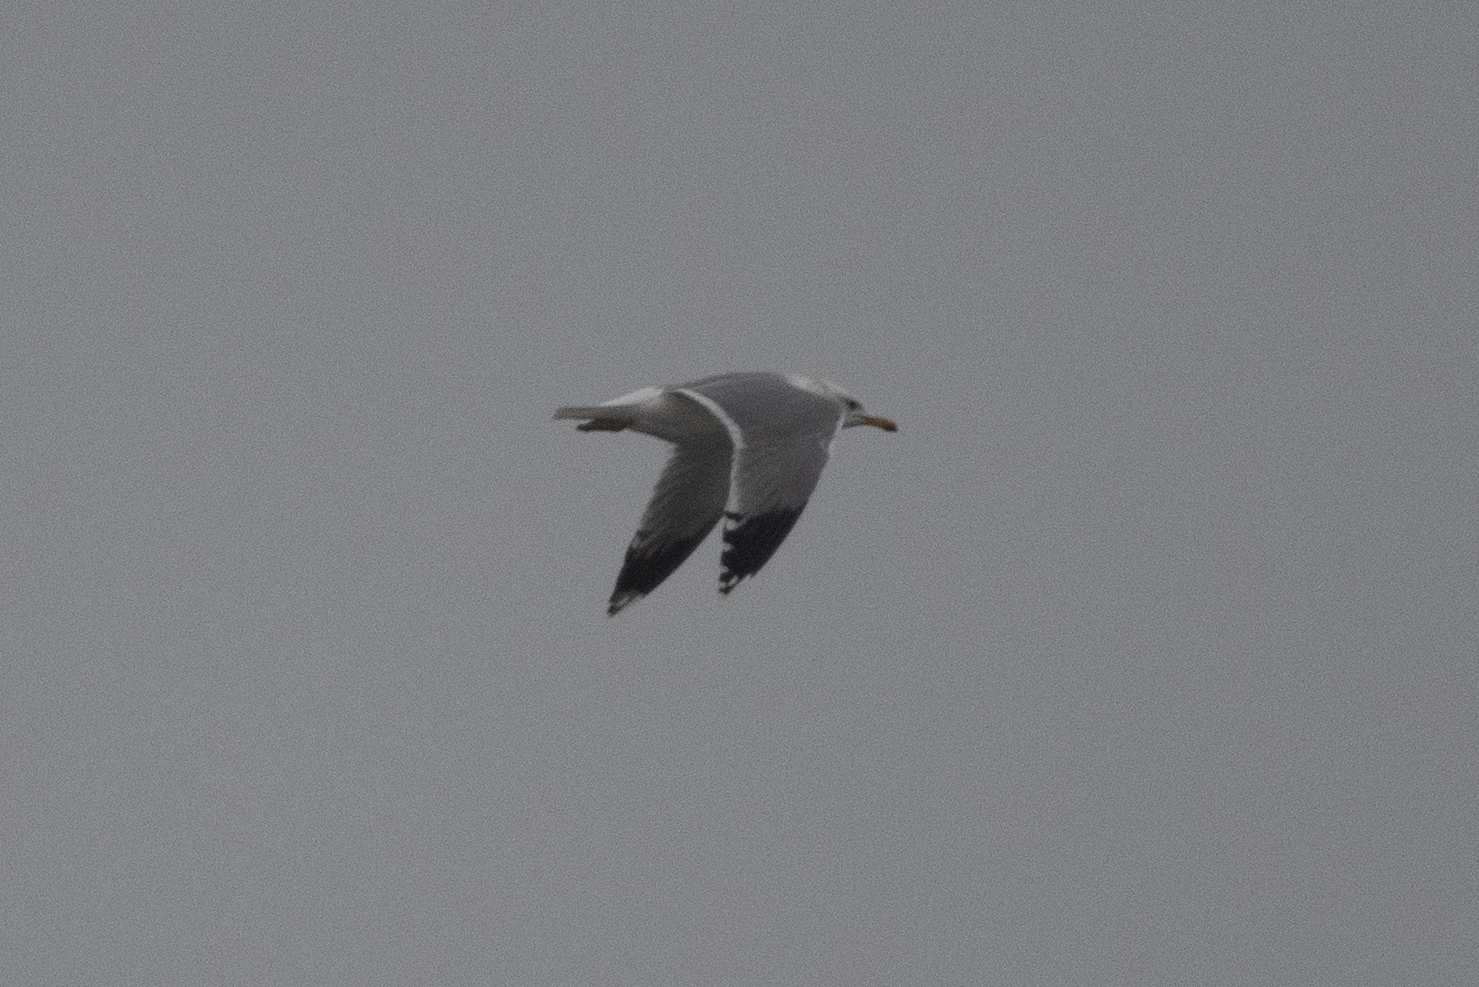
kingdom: Animalia
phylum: Chordata
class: Aves
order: Charadriiformes
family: Laridae
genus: Larus
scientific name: Larus californicus
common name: California gull
